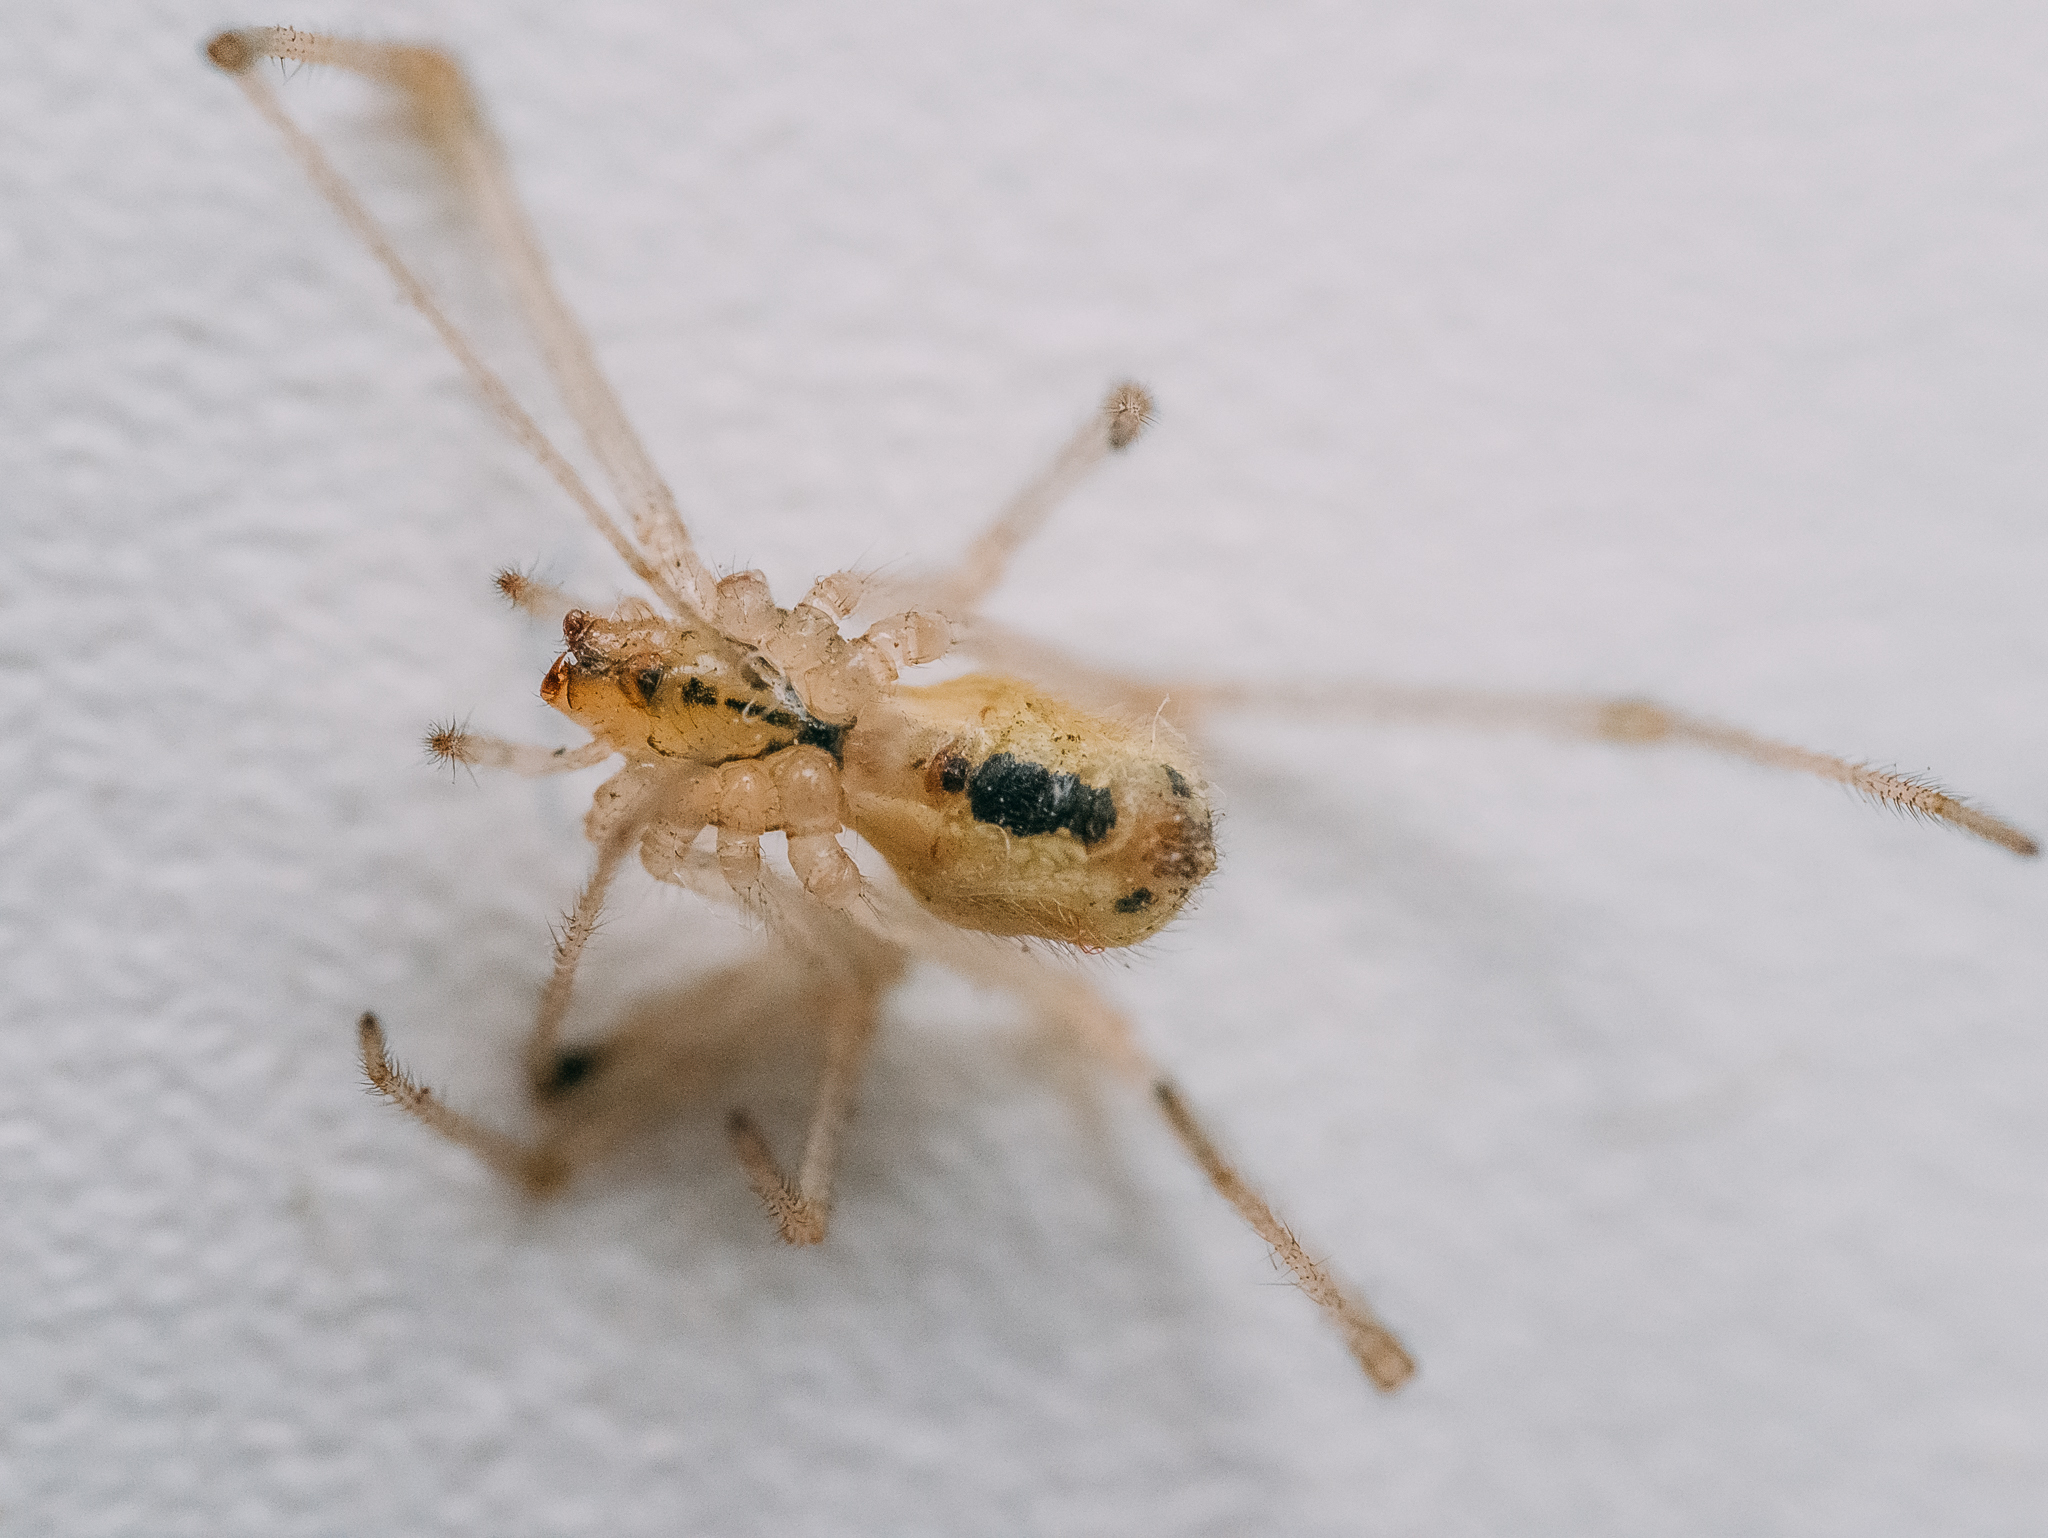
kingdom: Animalia
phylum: Arthropoda
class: Arachnida
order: Araneae
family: Theridiidae
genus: Enoplognatha
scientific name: Enoplognatha ovata
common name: Common candy-striped spider
